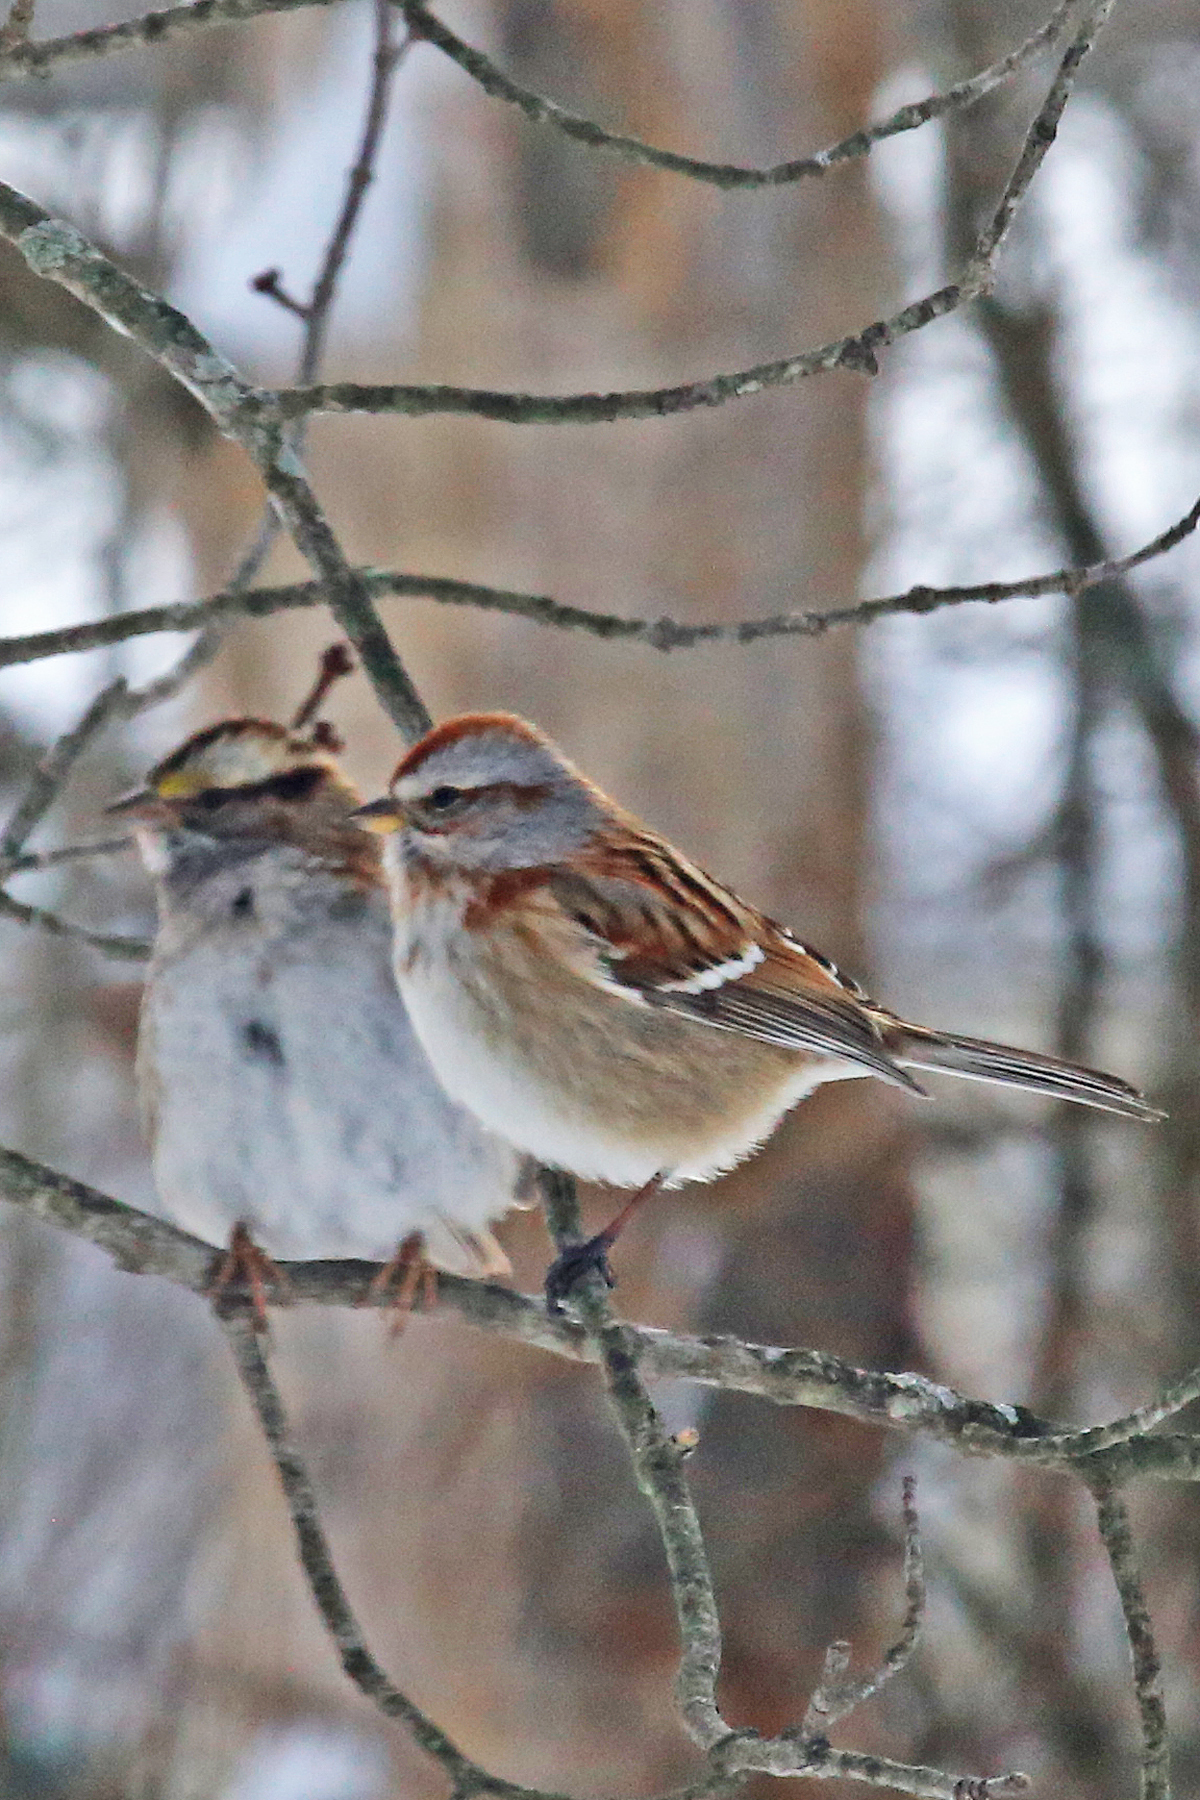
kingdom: Animalia
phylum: Chordata
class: Aves
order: Passeriformes
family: Passerellidae
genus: Spizelloides
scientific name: Spizelloides arborea
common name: American tree sparrow
